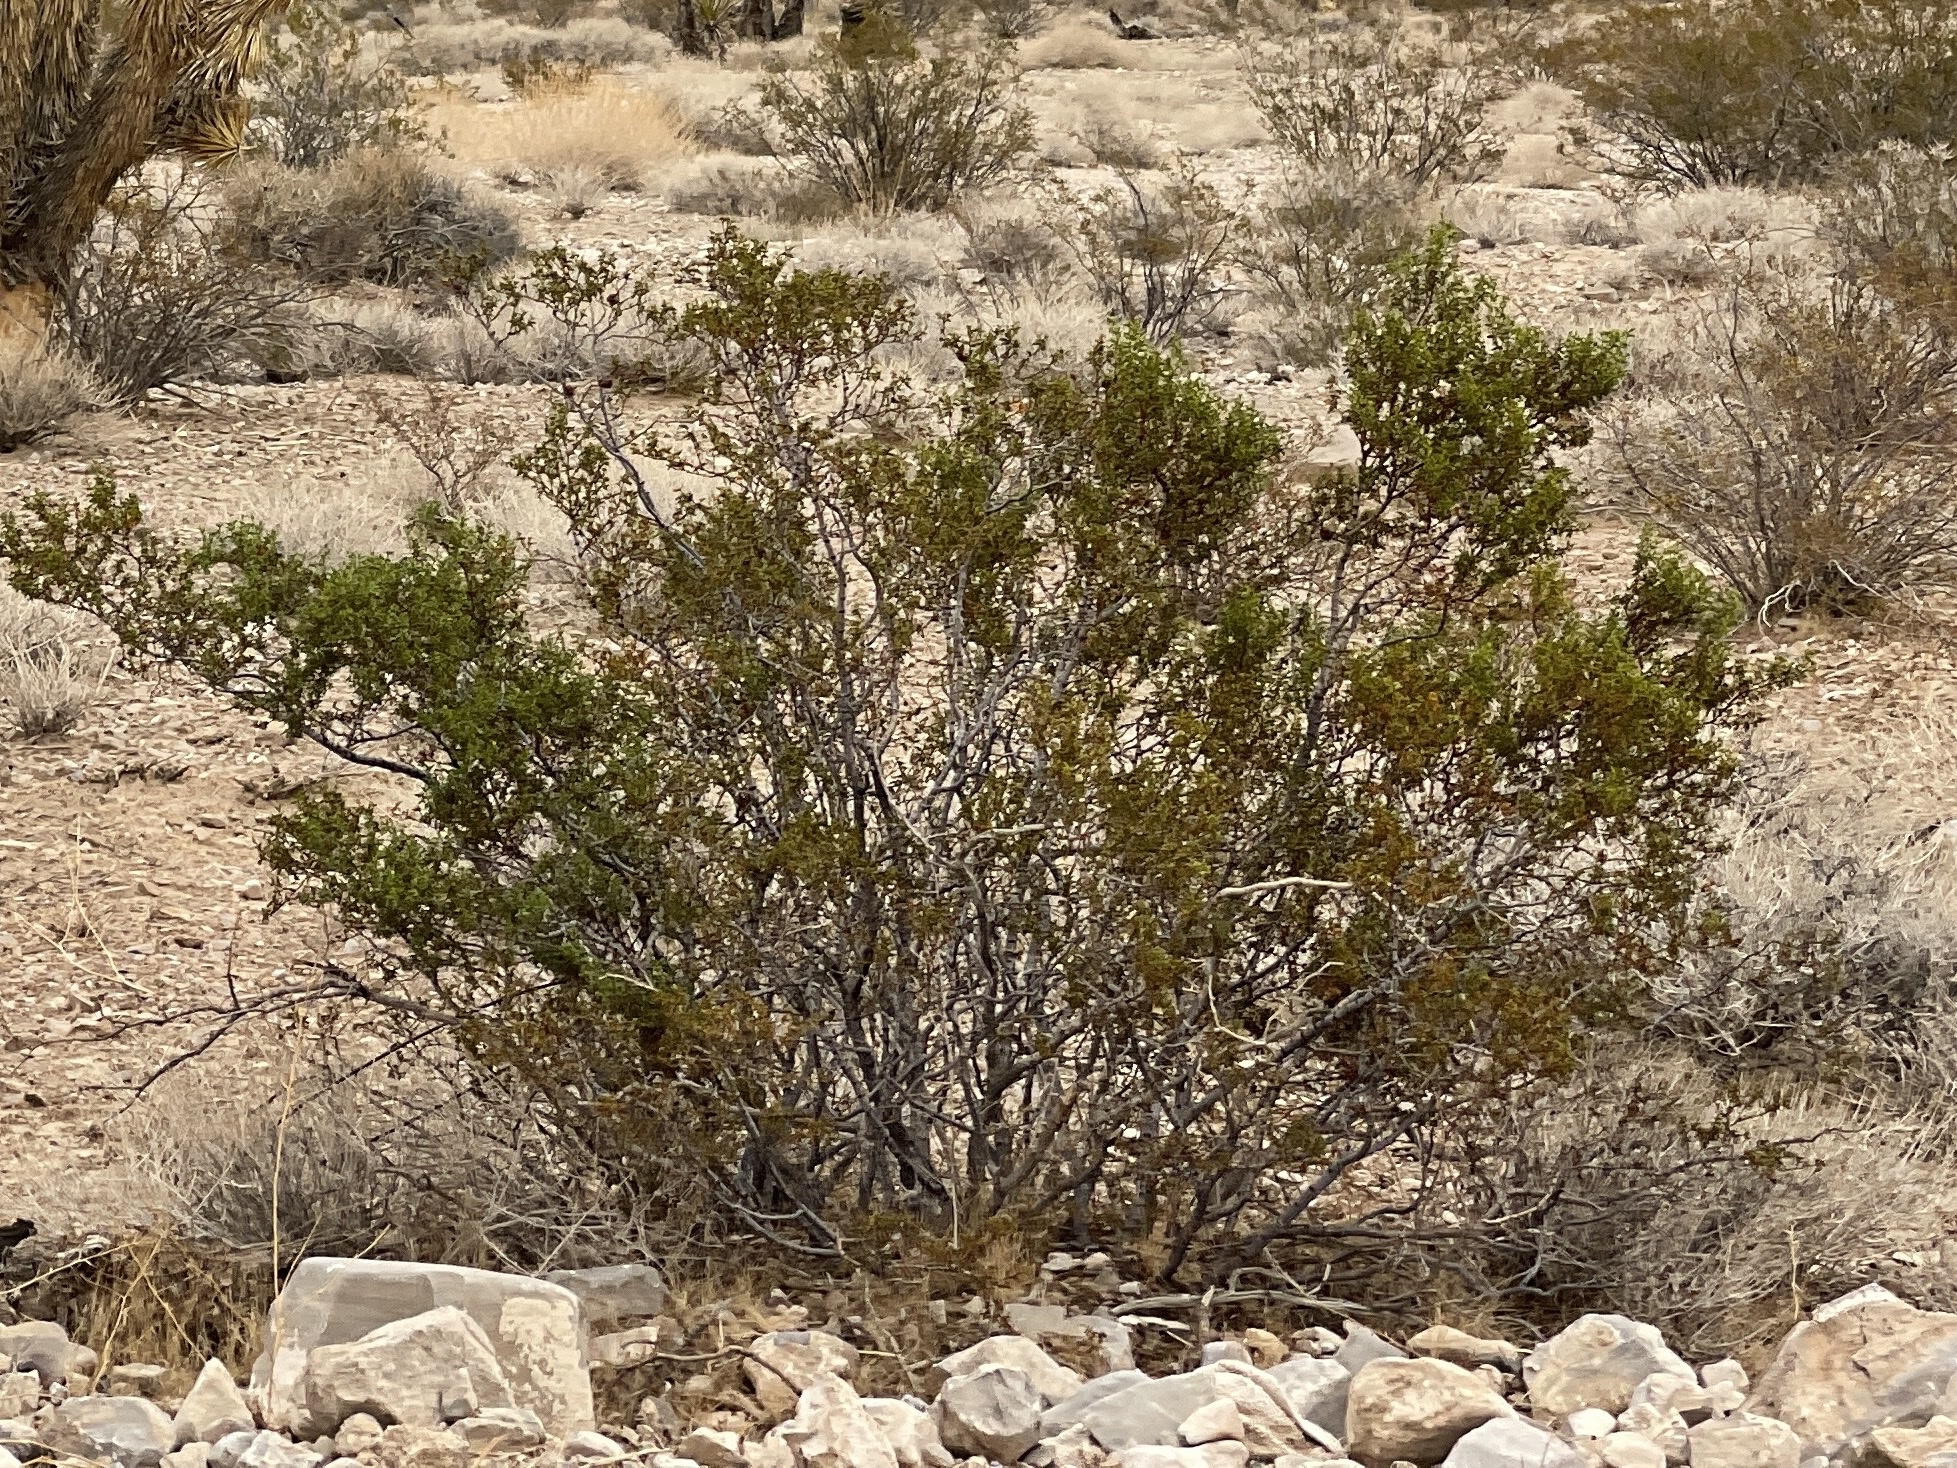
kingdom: Plantae
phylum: Tracheophyta
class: Magnoliopsida
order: Zygophyllales
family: Zygophyllaceae
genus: Larrea
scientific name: Larrea tridentata
